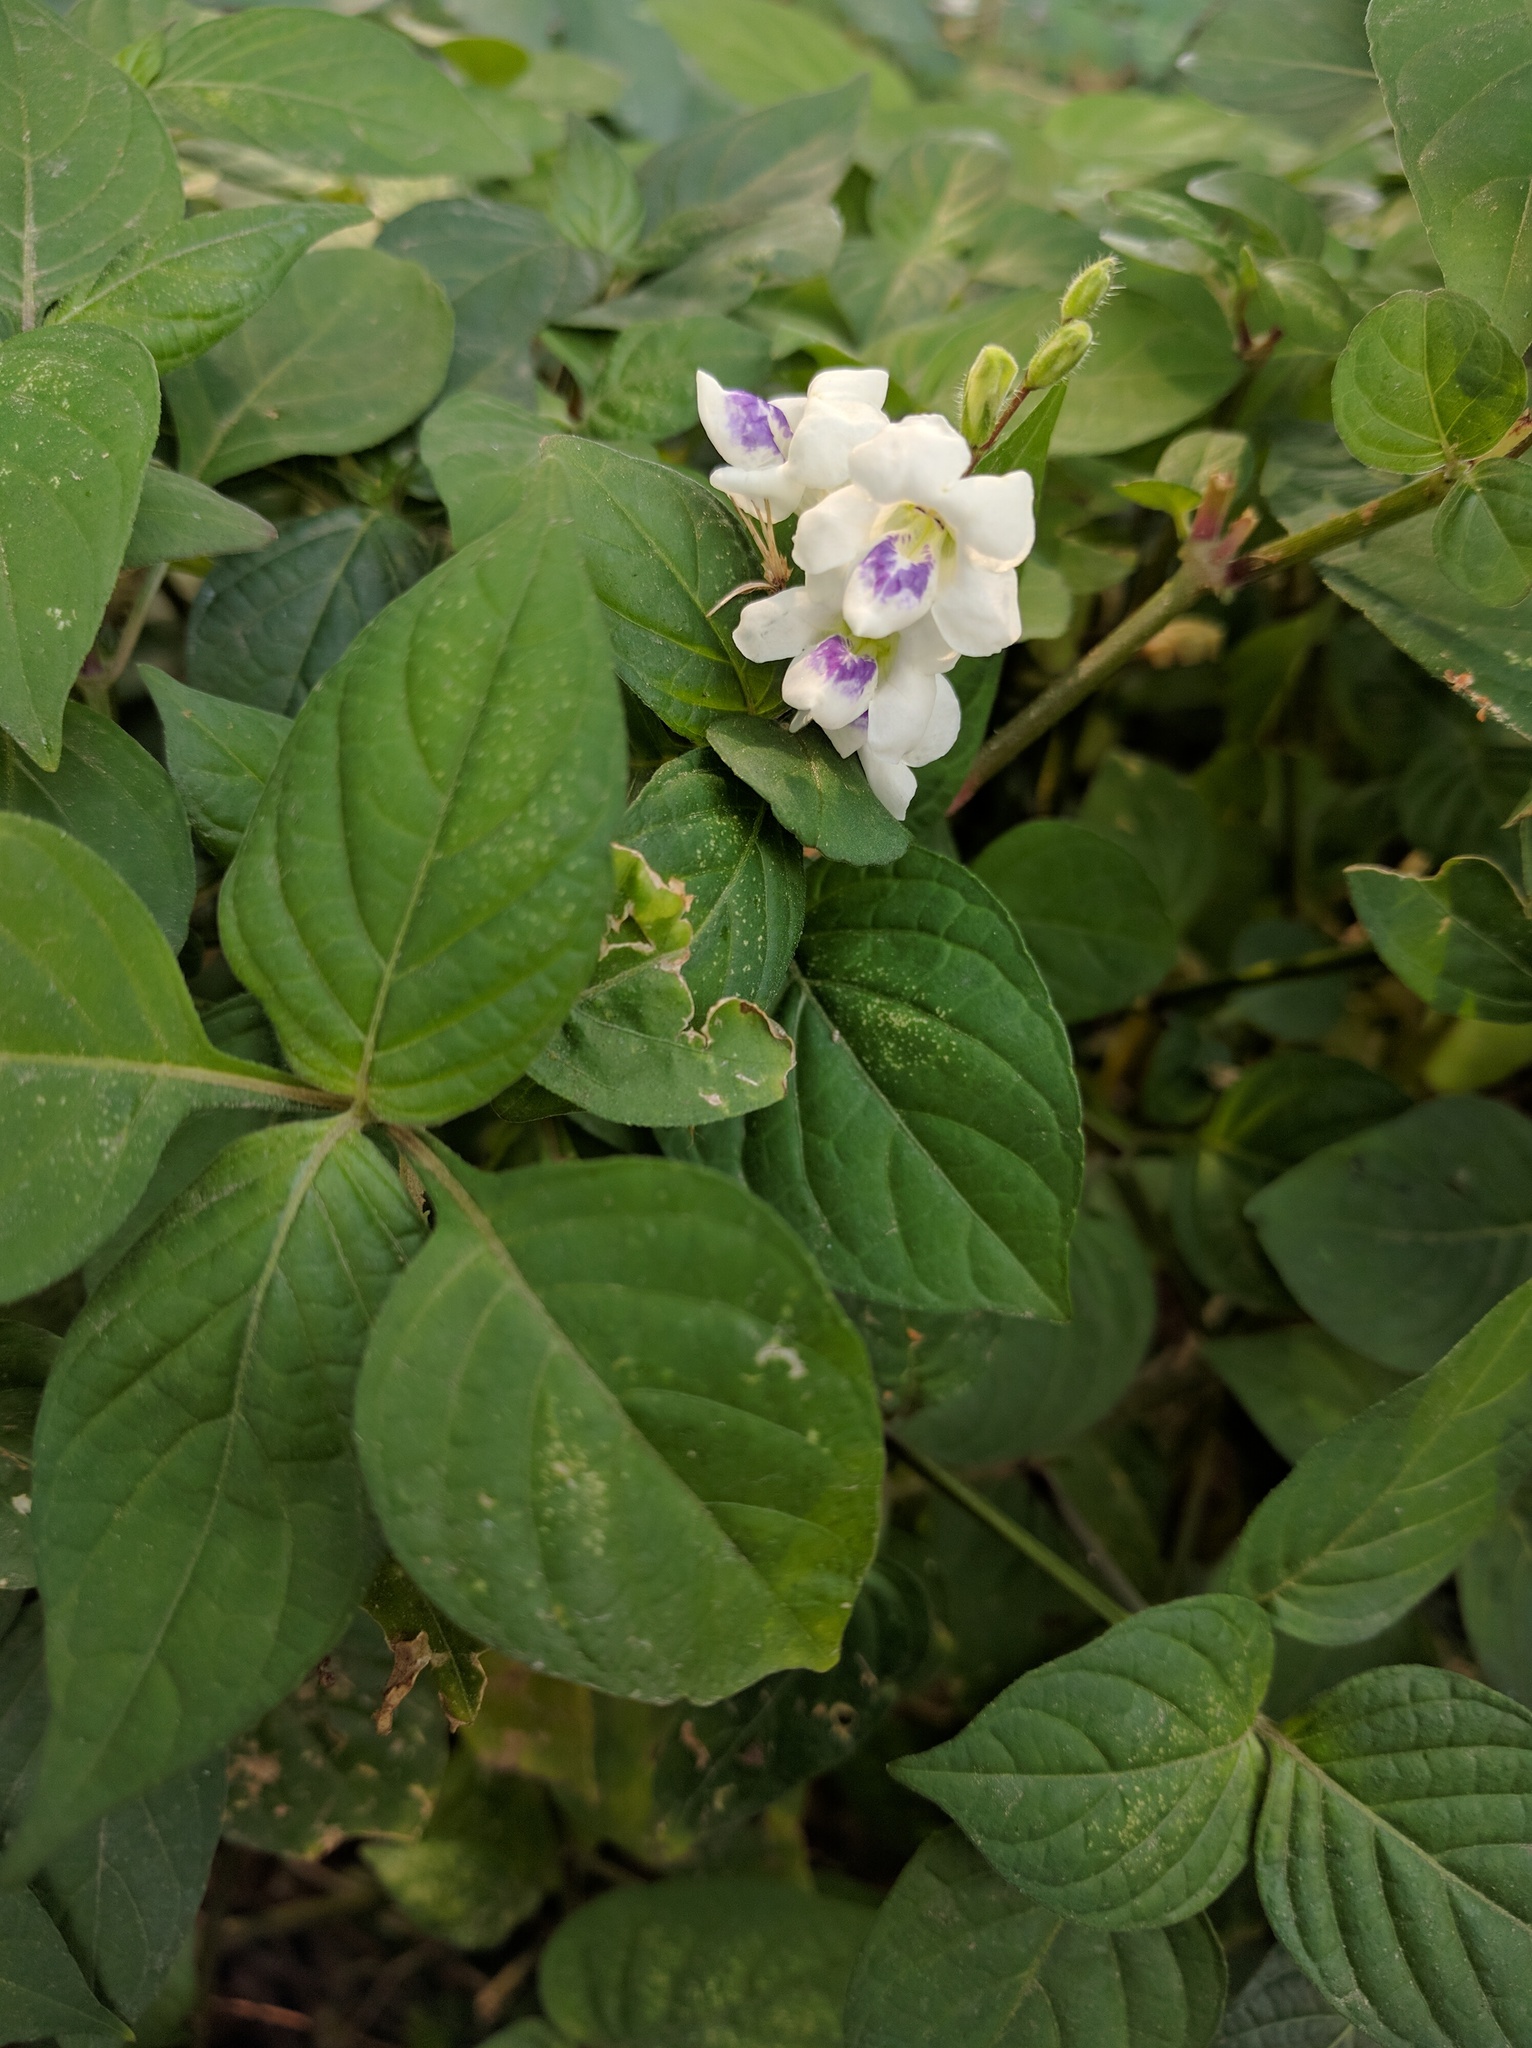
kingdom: Plantae
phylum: Tracheophyta
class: Magnoliopsida
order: Lamiales
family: Acanthaceae
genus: Asystasia
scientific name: Asystasia intrusa
